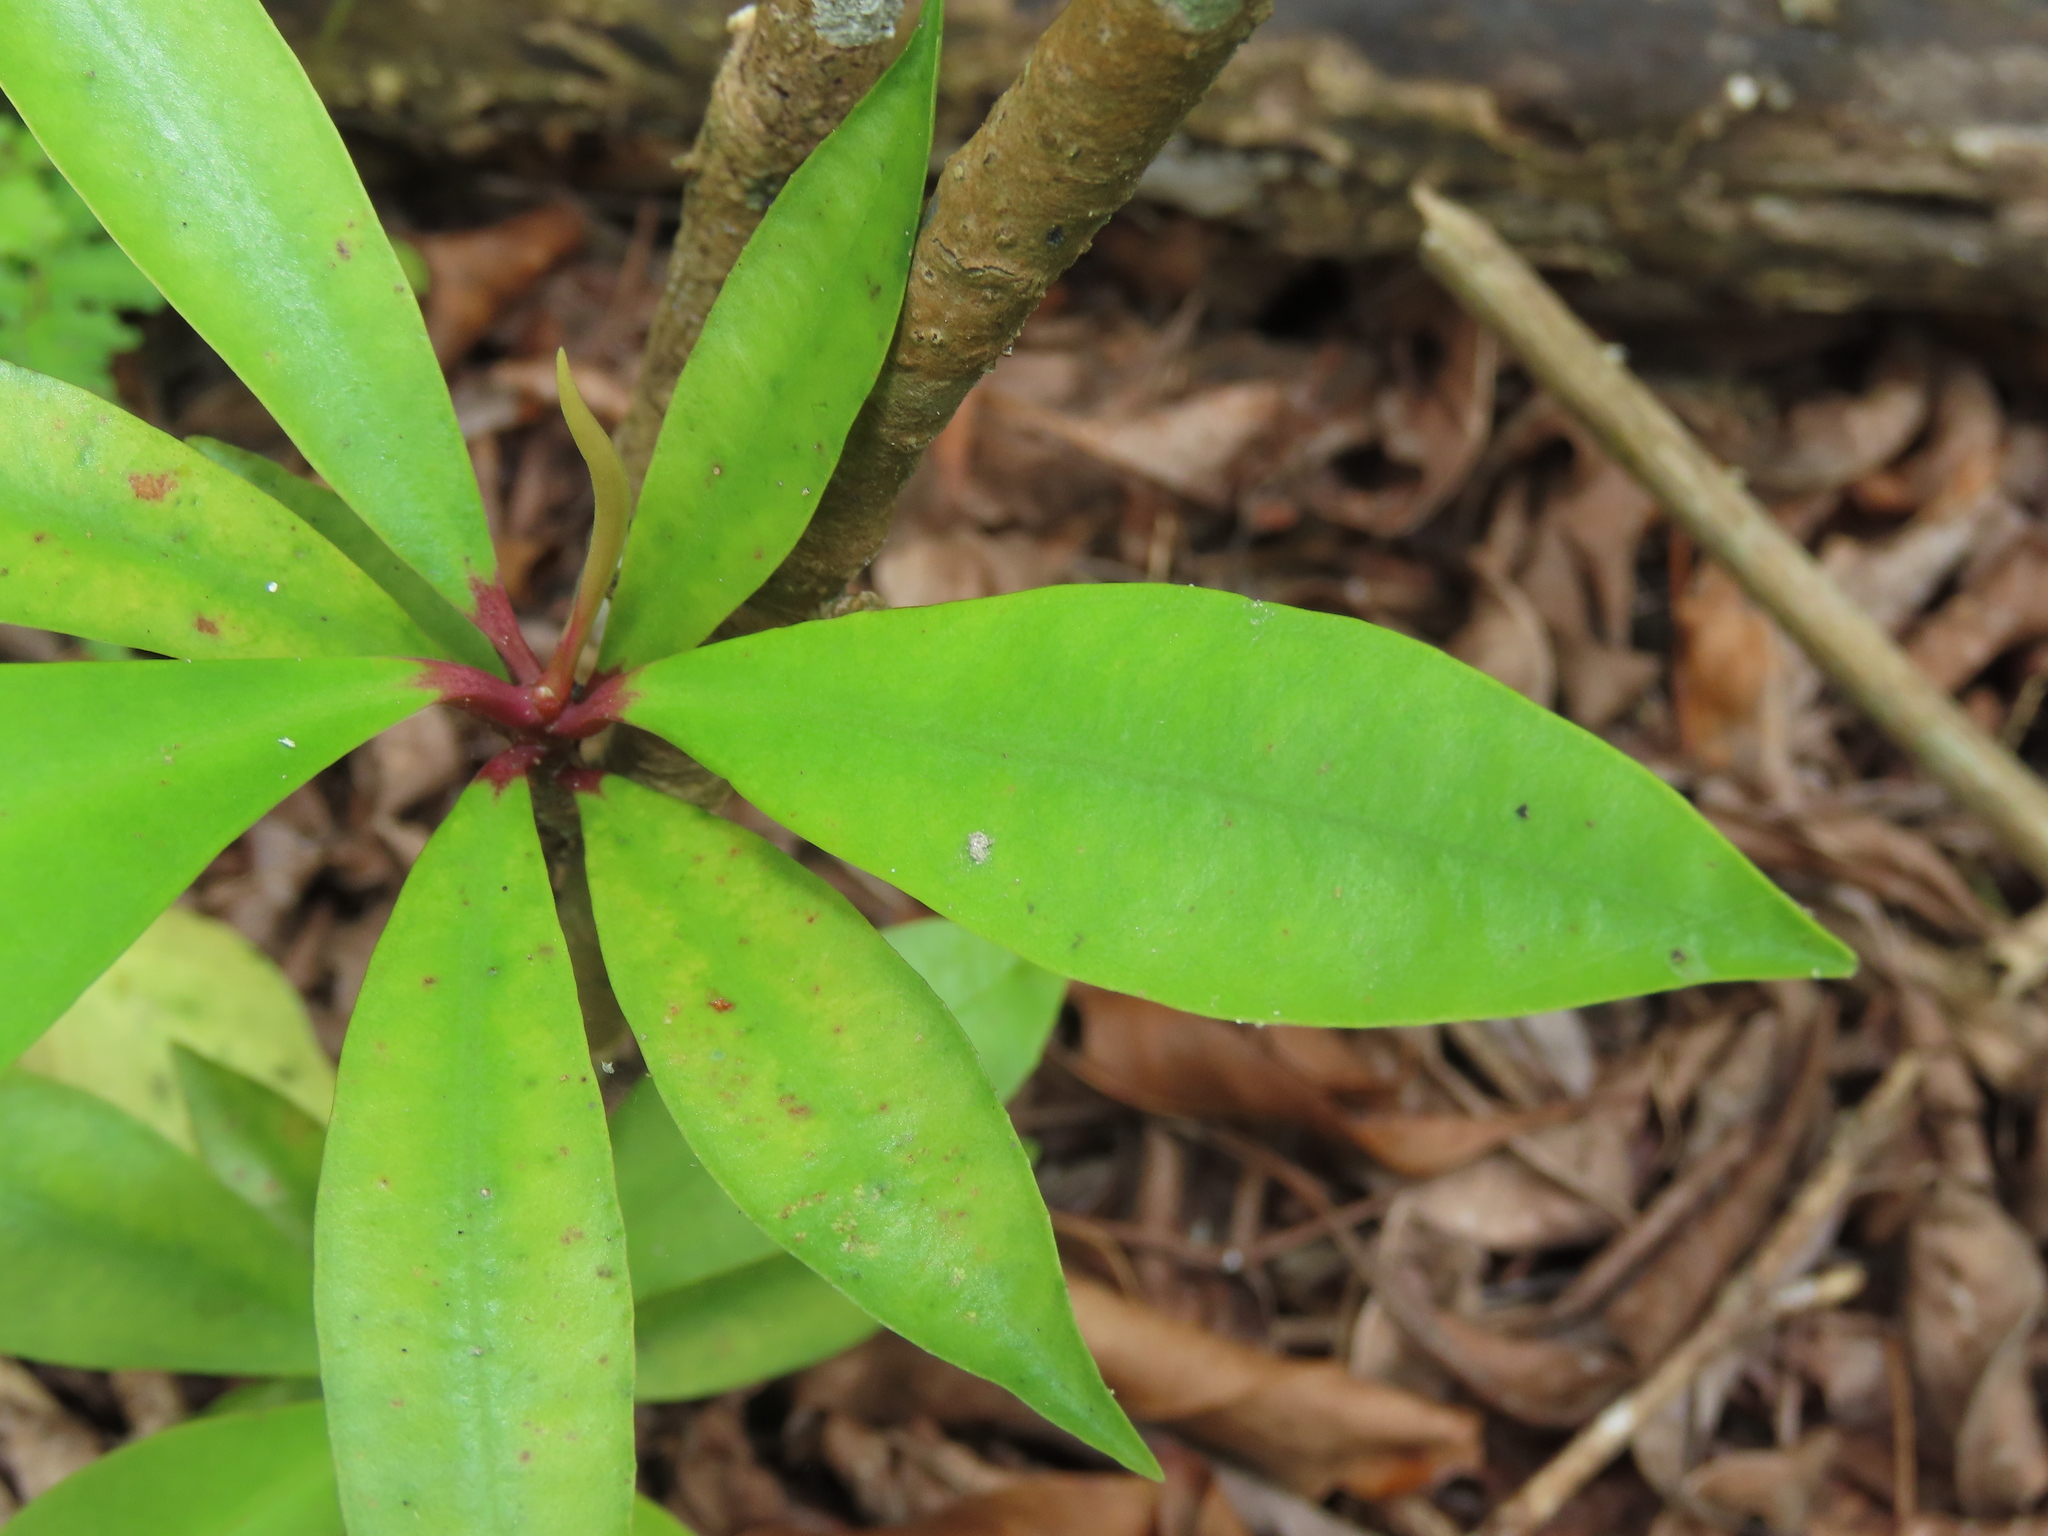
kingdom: Plantae
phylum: Tracheophyta
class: Magnoliopsida
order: Ericales
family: Primulaceae
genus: Ardisia
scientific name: Ardisia elliptica
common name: Shoebutton
